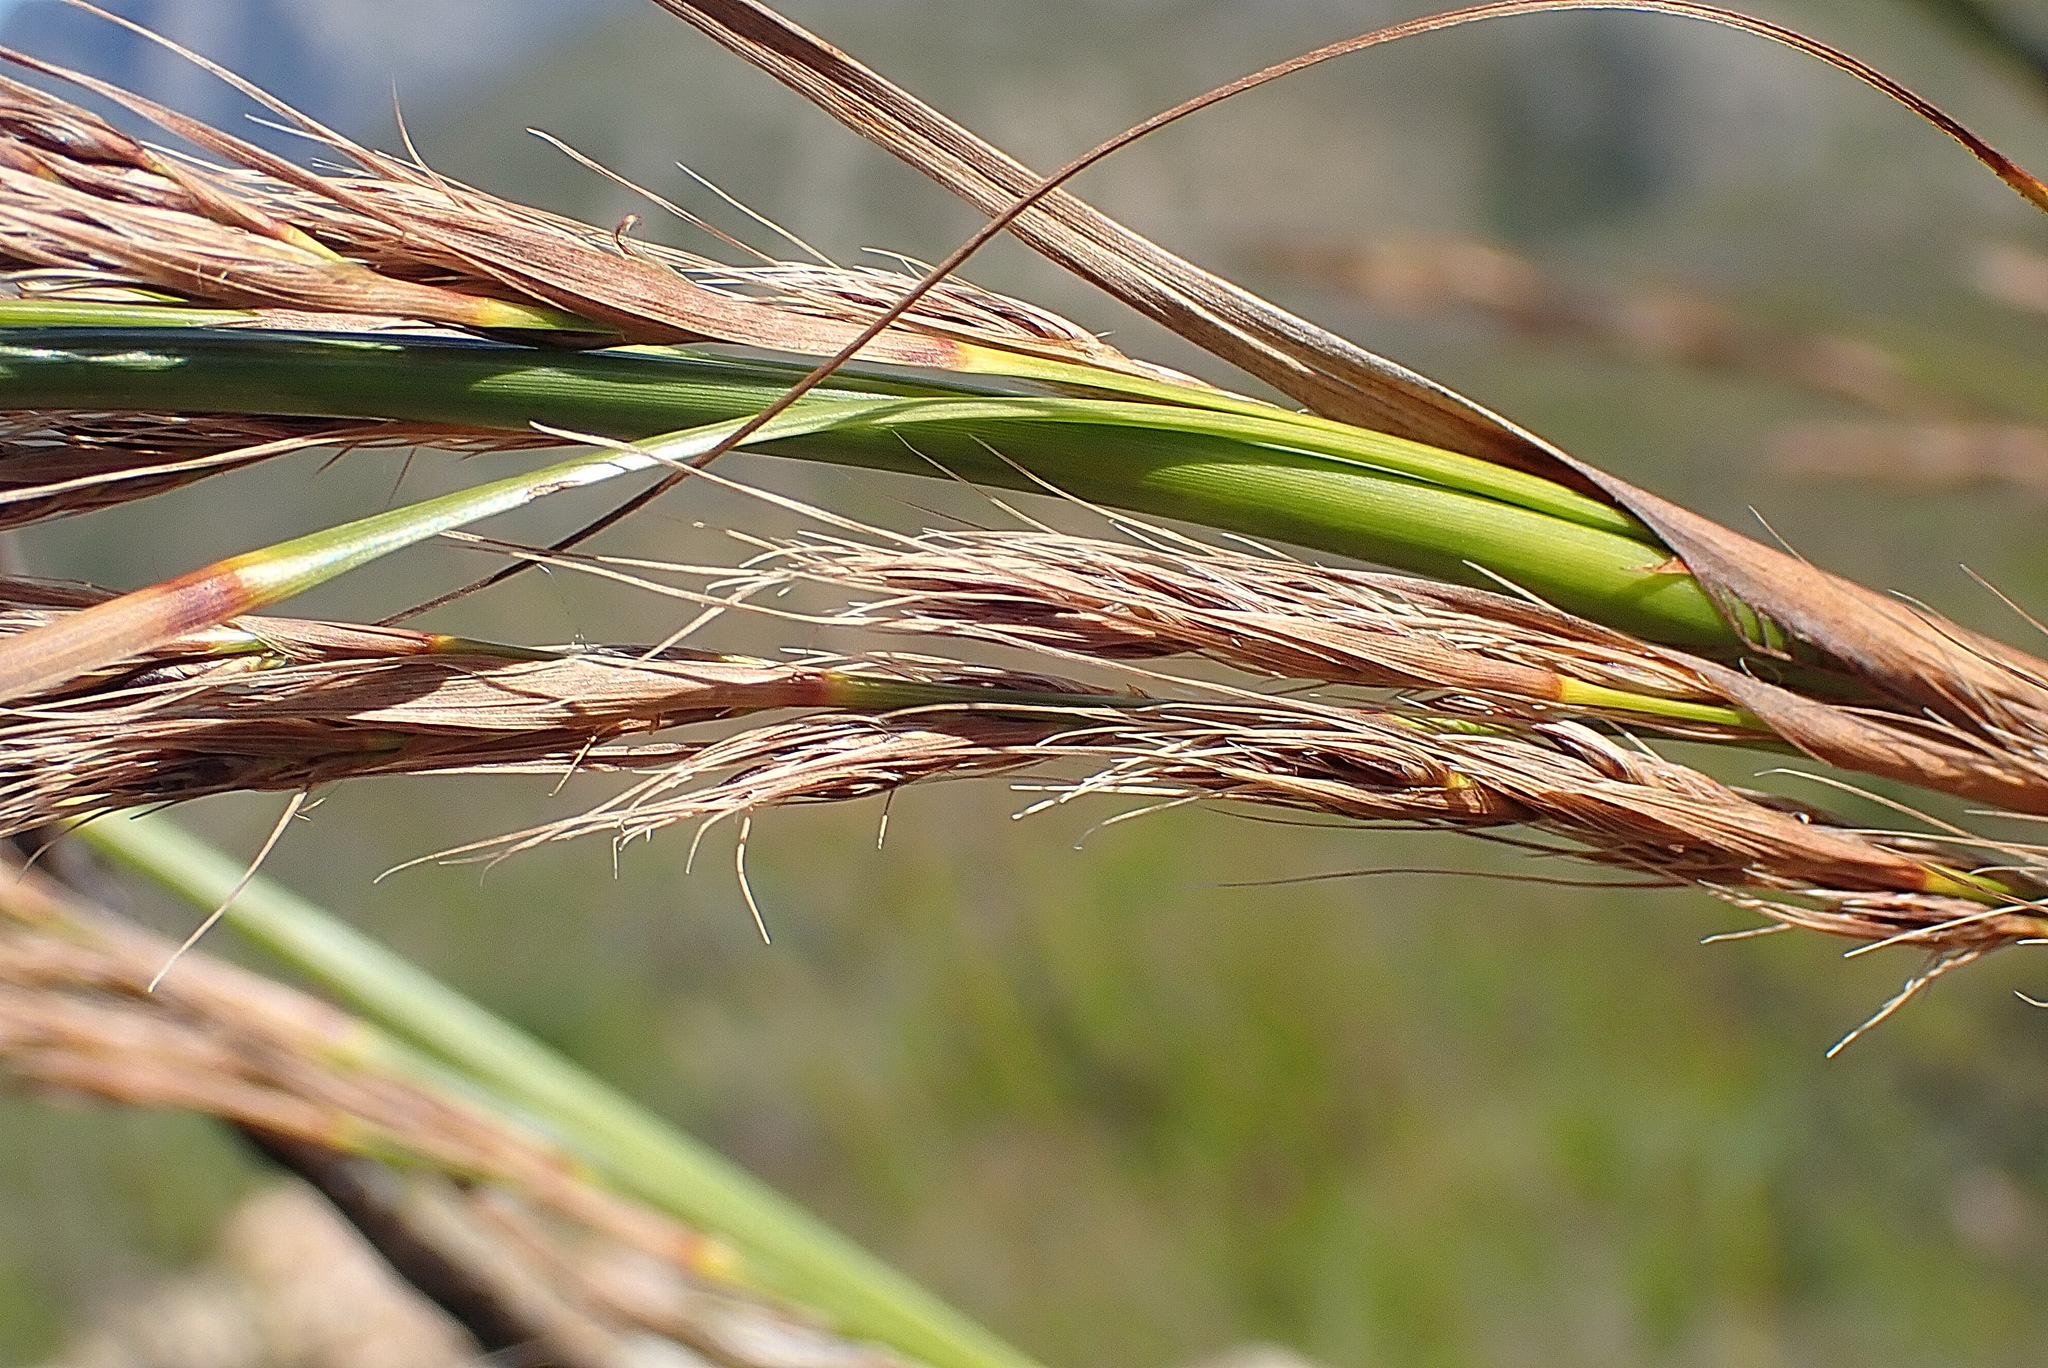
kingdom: Plantae
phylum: Tracheophyta
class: Liliopsida
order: Poales
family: Cyperaceae
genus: Tetraria
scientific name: Tetraria involucrata
